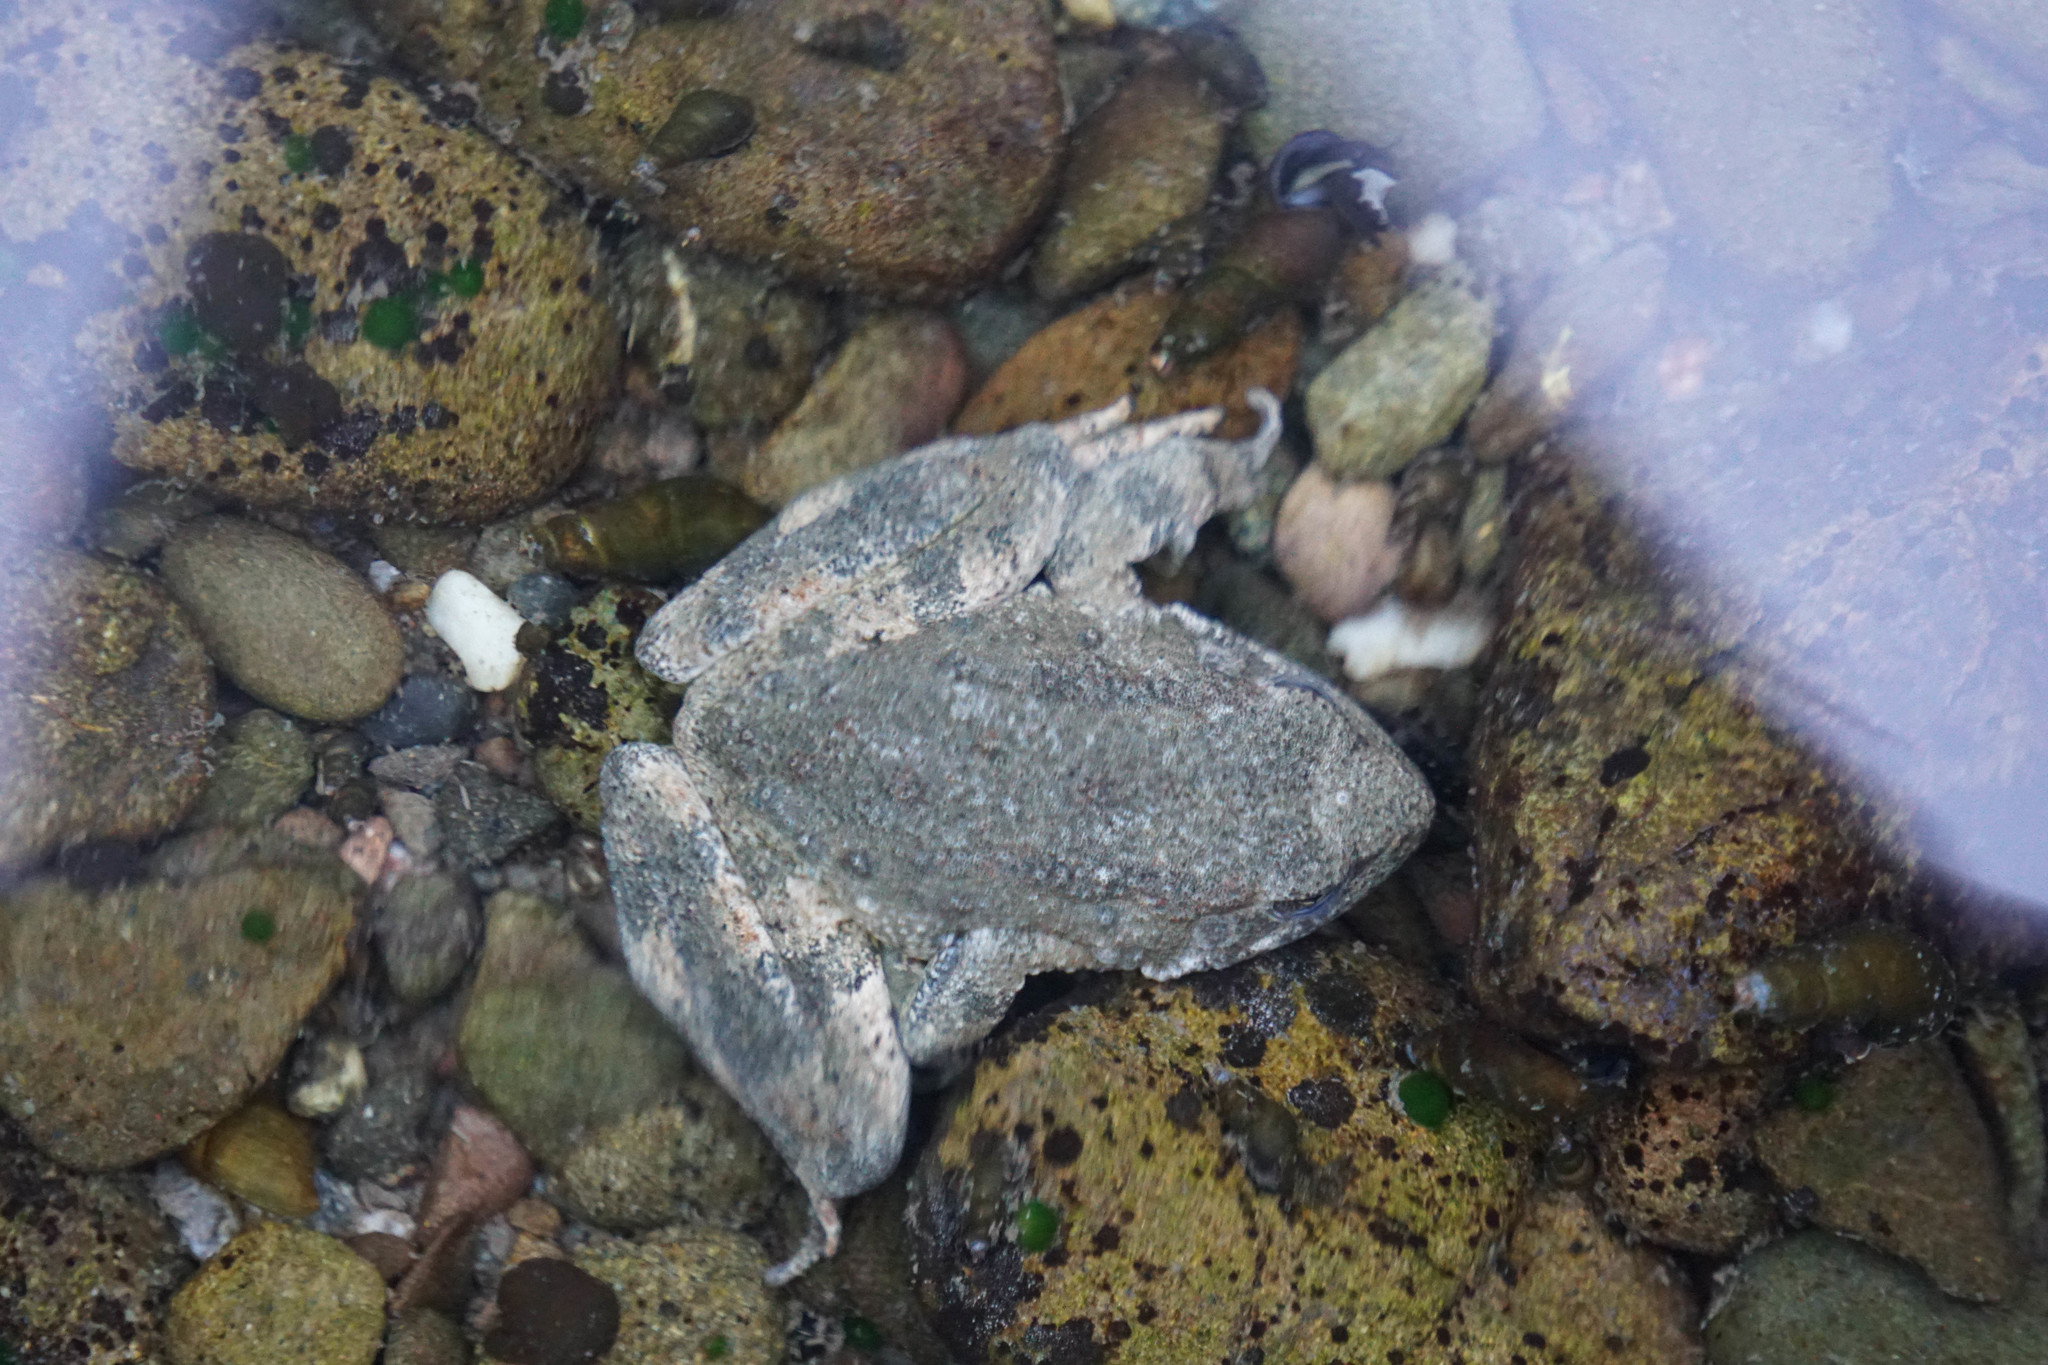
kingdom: Animalia
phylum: Chordata
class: Amphibia
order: Anura
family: Ranidae
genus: Rana
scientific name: Rana boylii
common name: Foothill yellow-legged frog
